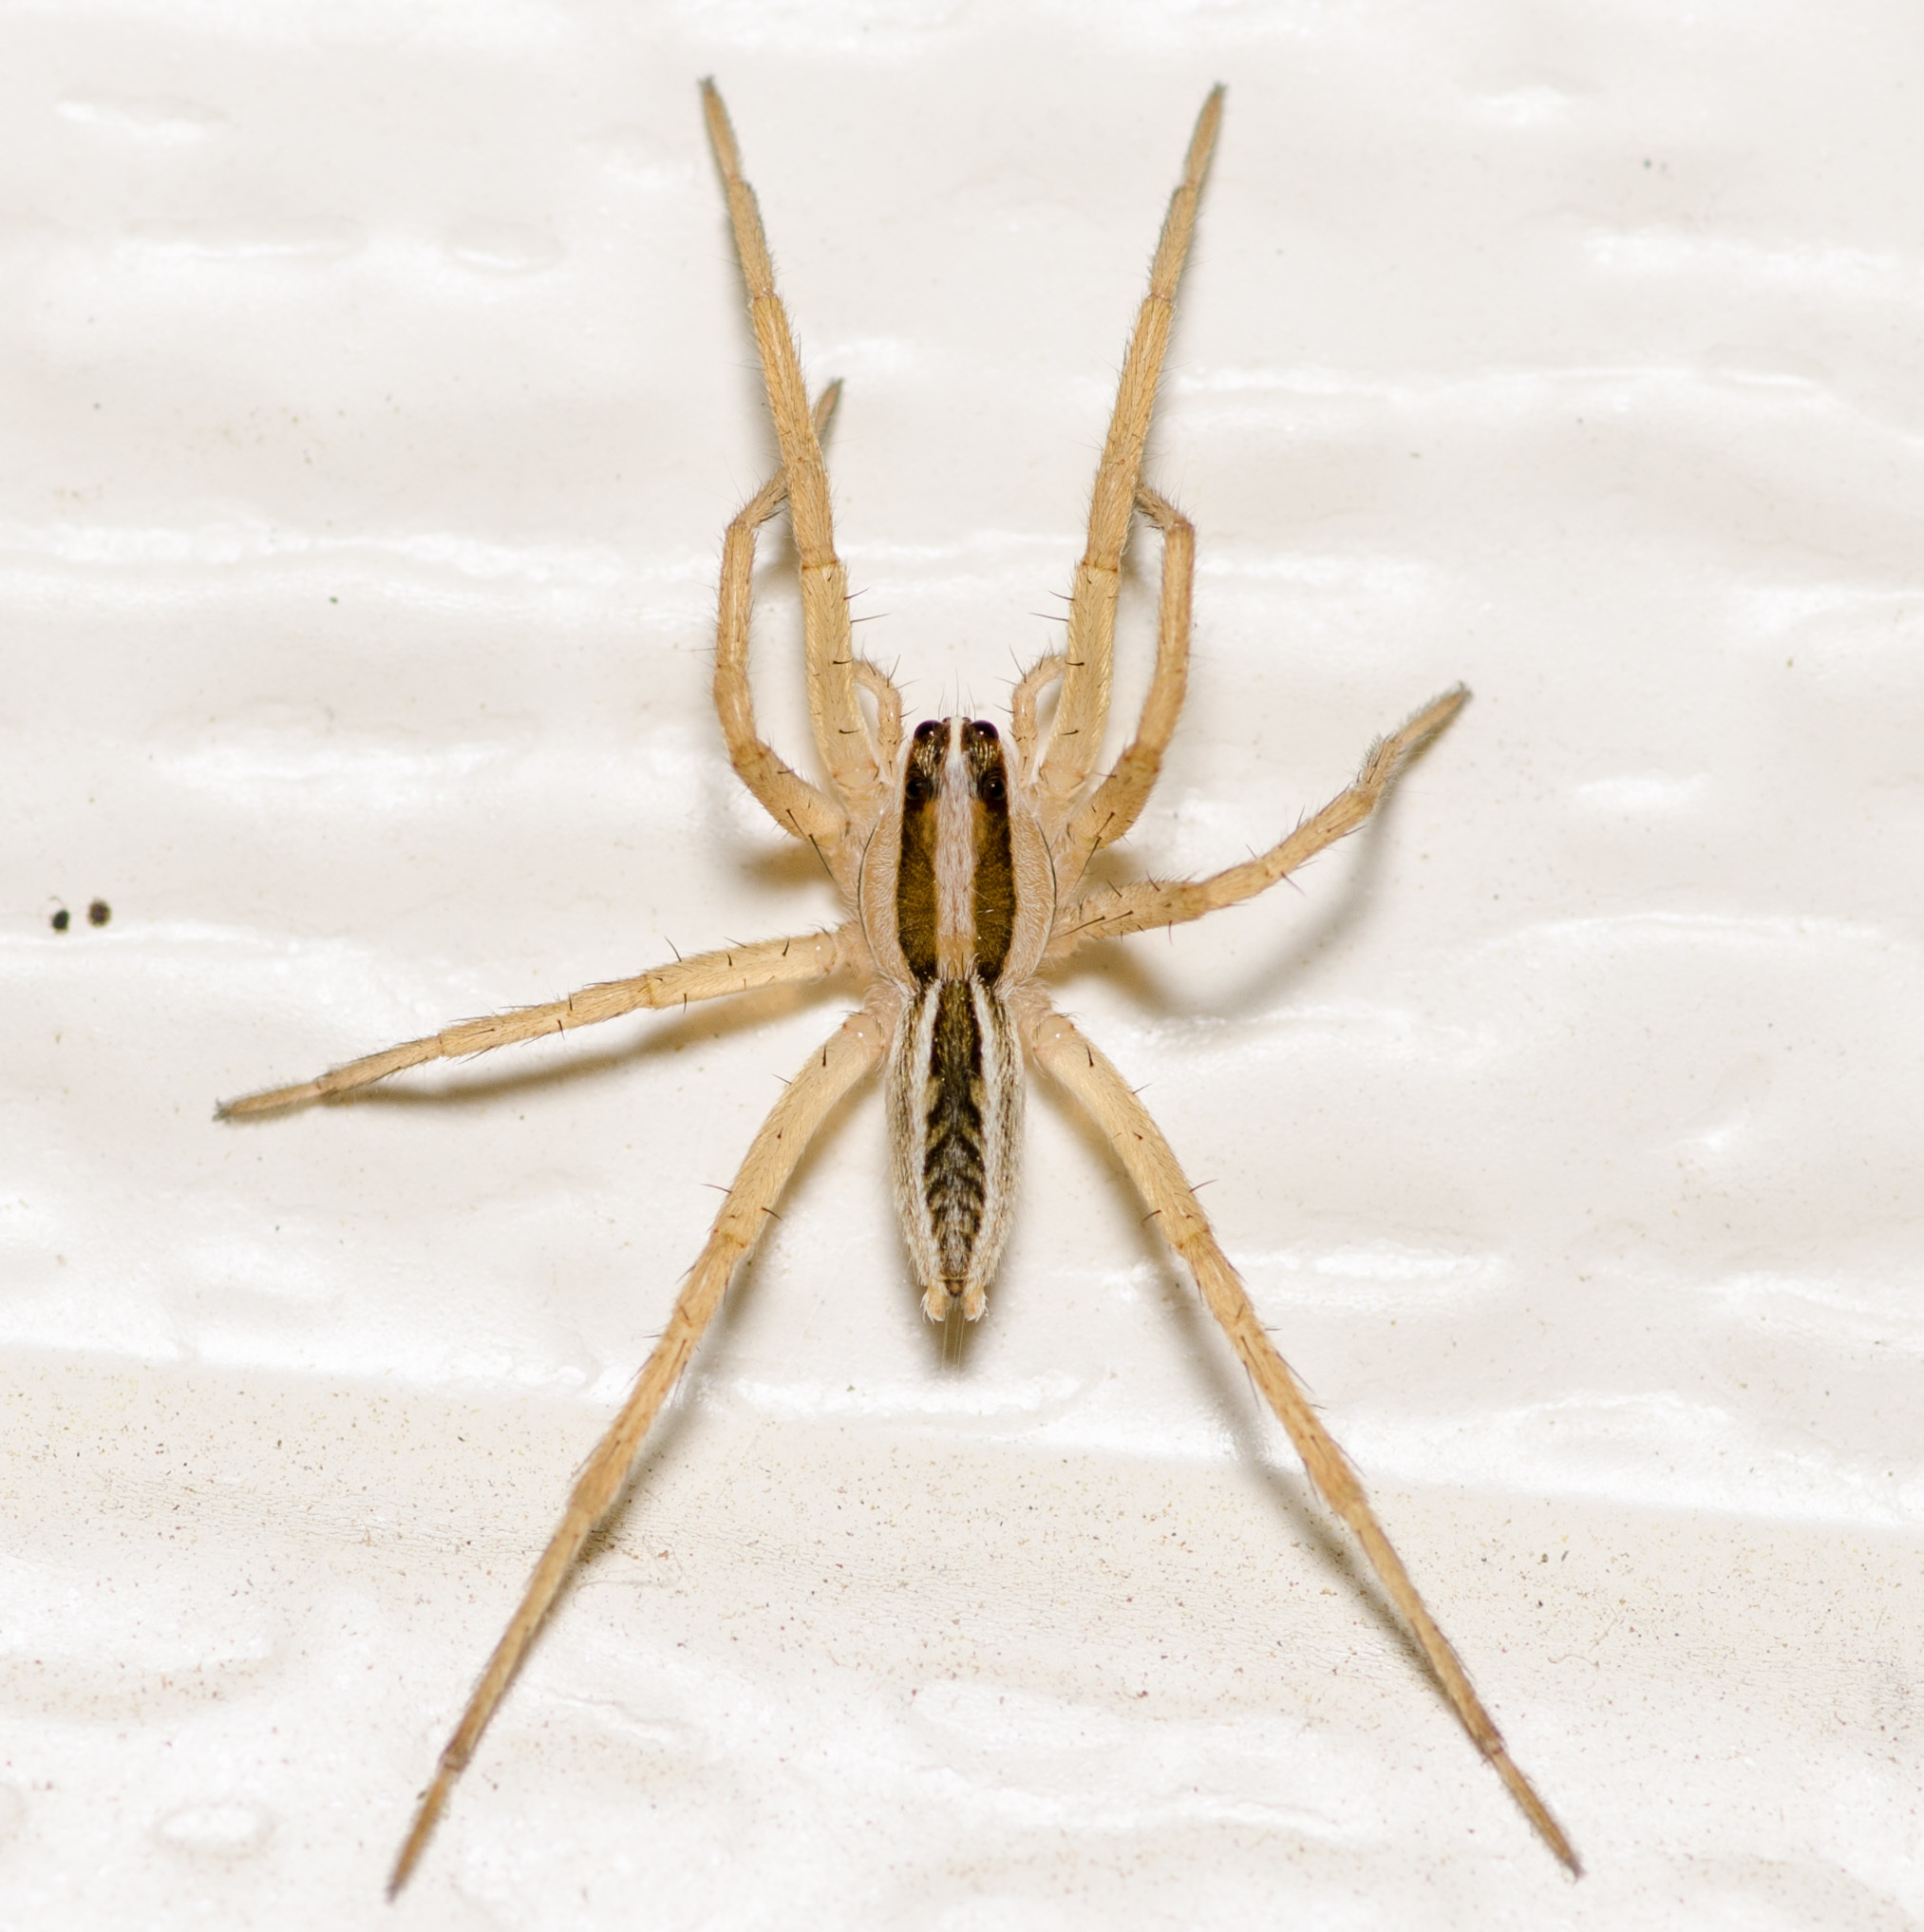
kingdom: Animalia
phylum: Arthropoda
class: Arachnida
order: Araneae
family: Lycosidae
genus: Rabidosa
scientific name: Rabidosa rabida
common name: Rabid wolf spider
